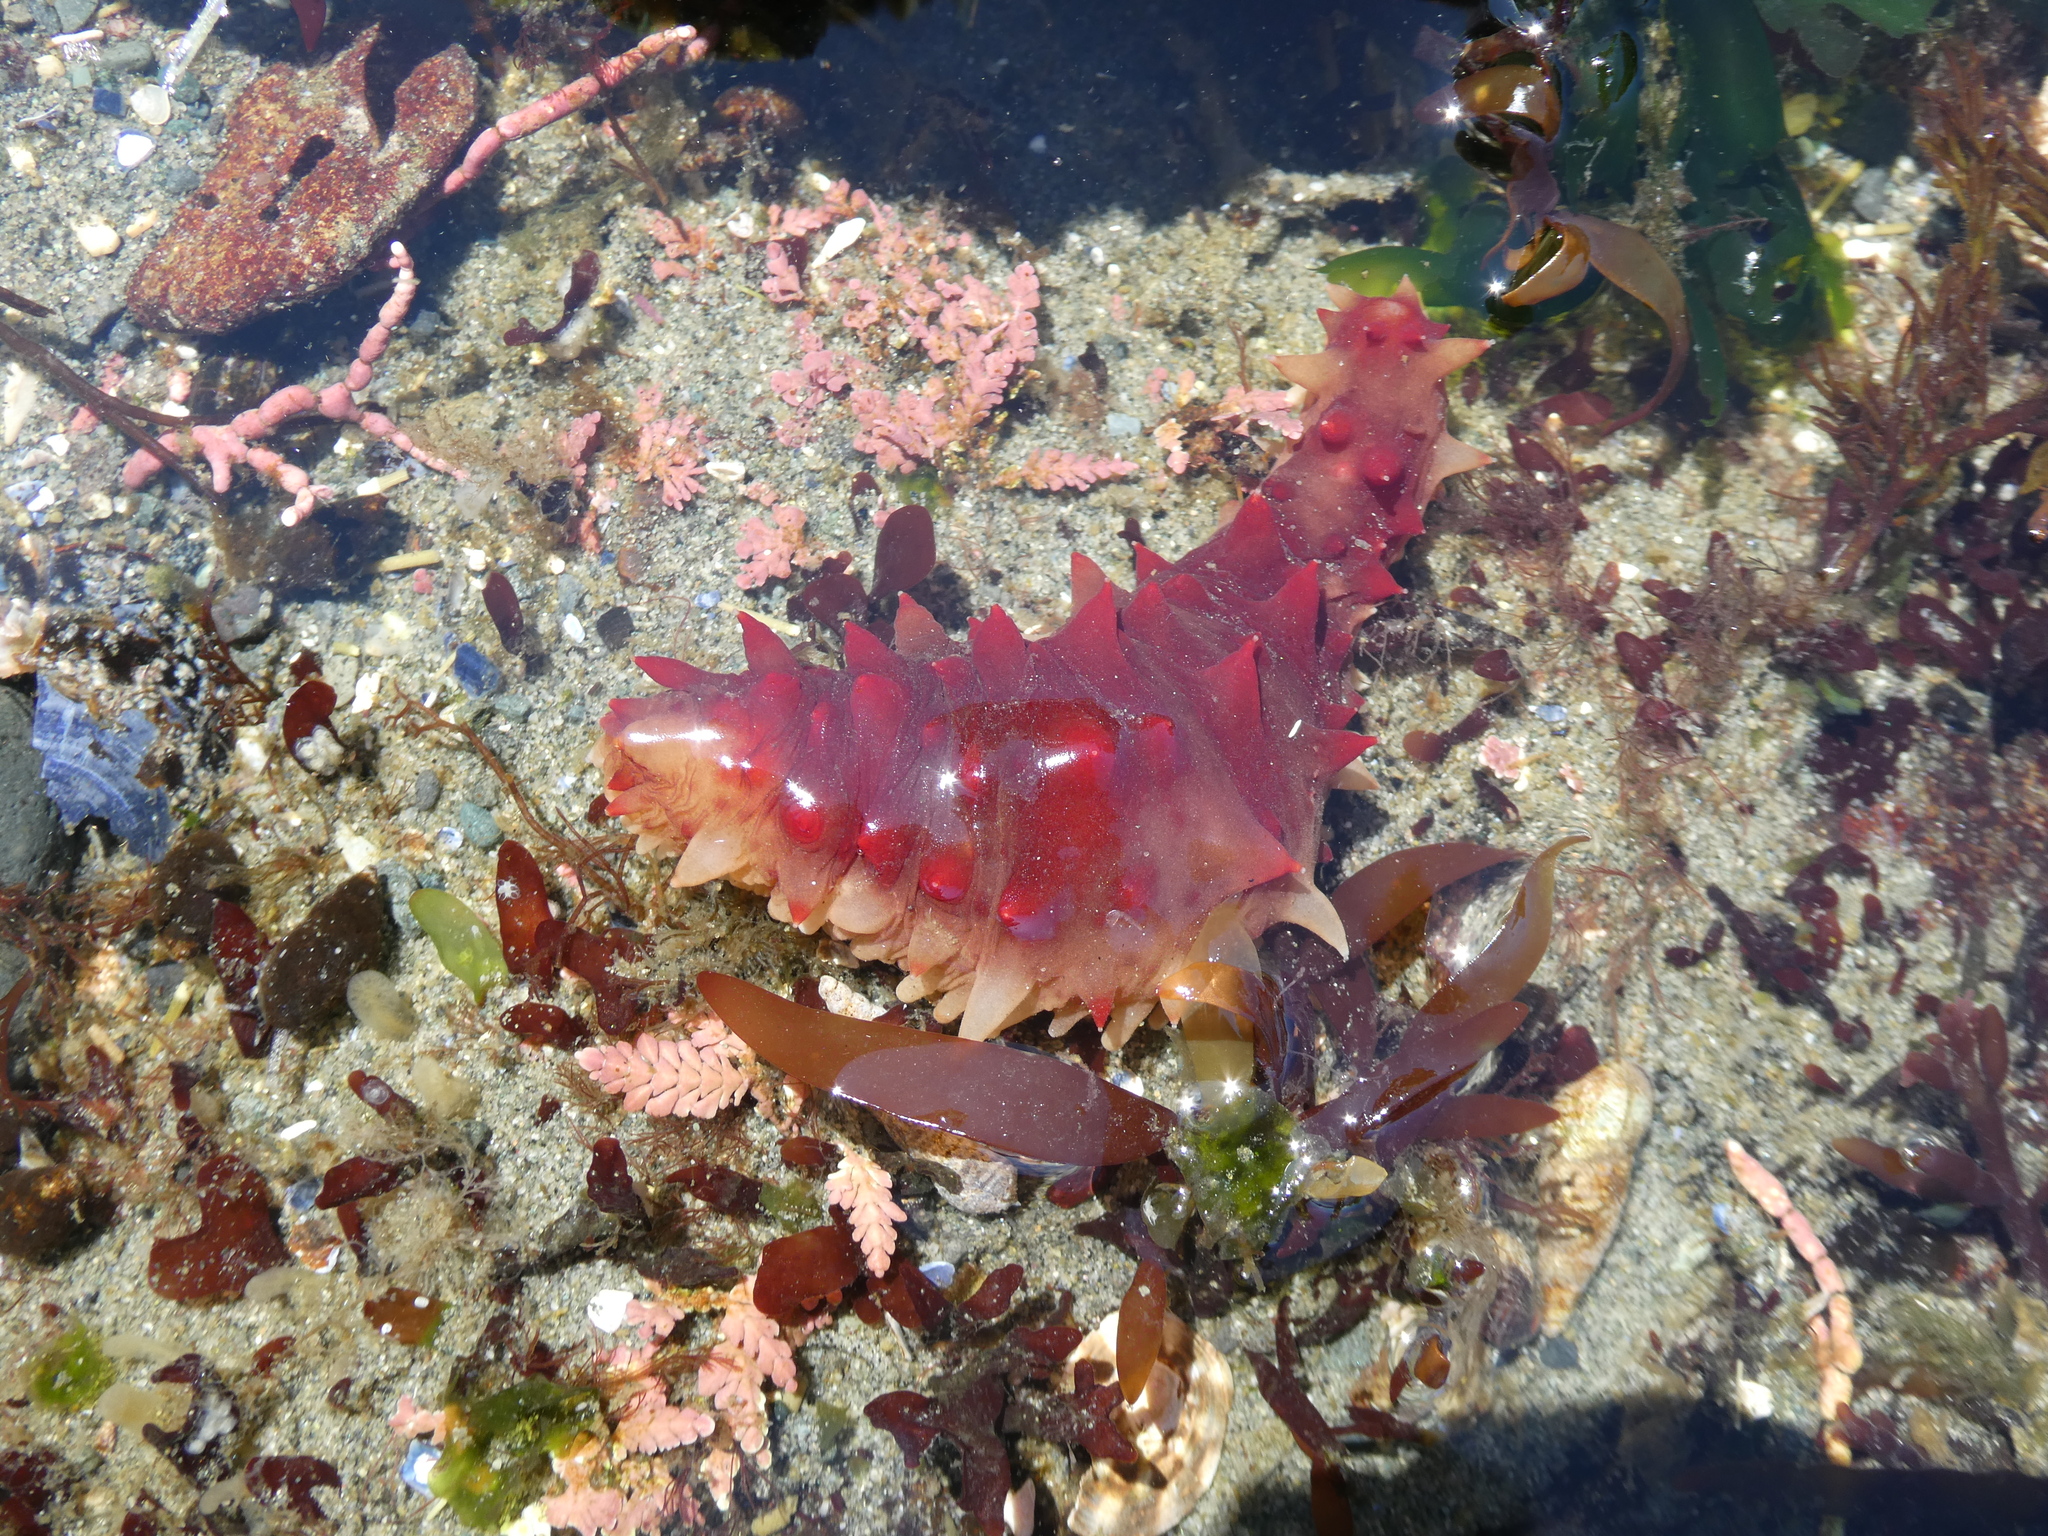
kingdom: Animalia
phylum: Echinodermata
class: Holothuroidea
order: Synallactida
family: Stichopodidae
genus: Apostichopus
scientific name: Apostichopus californicus
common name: California sea cucumber
